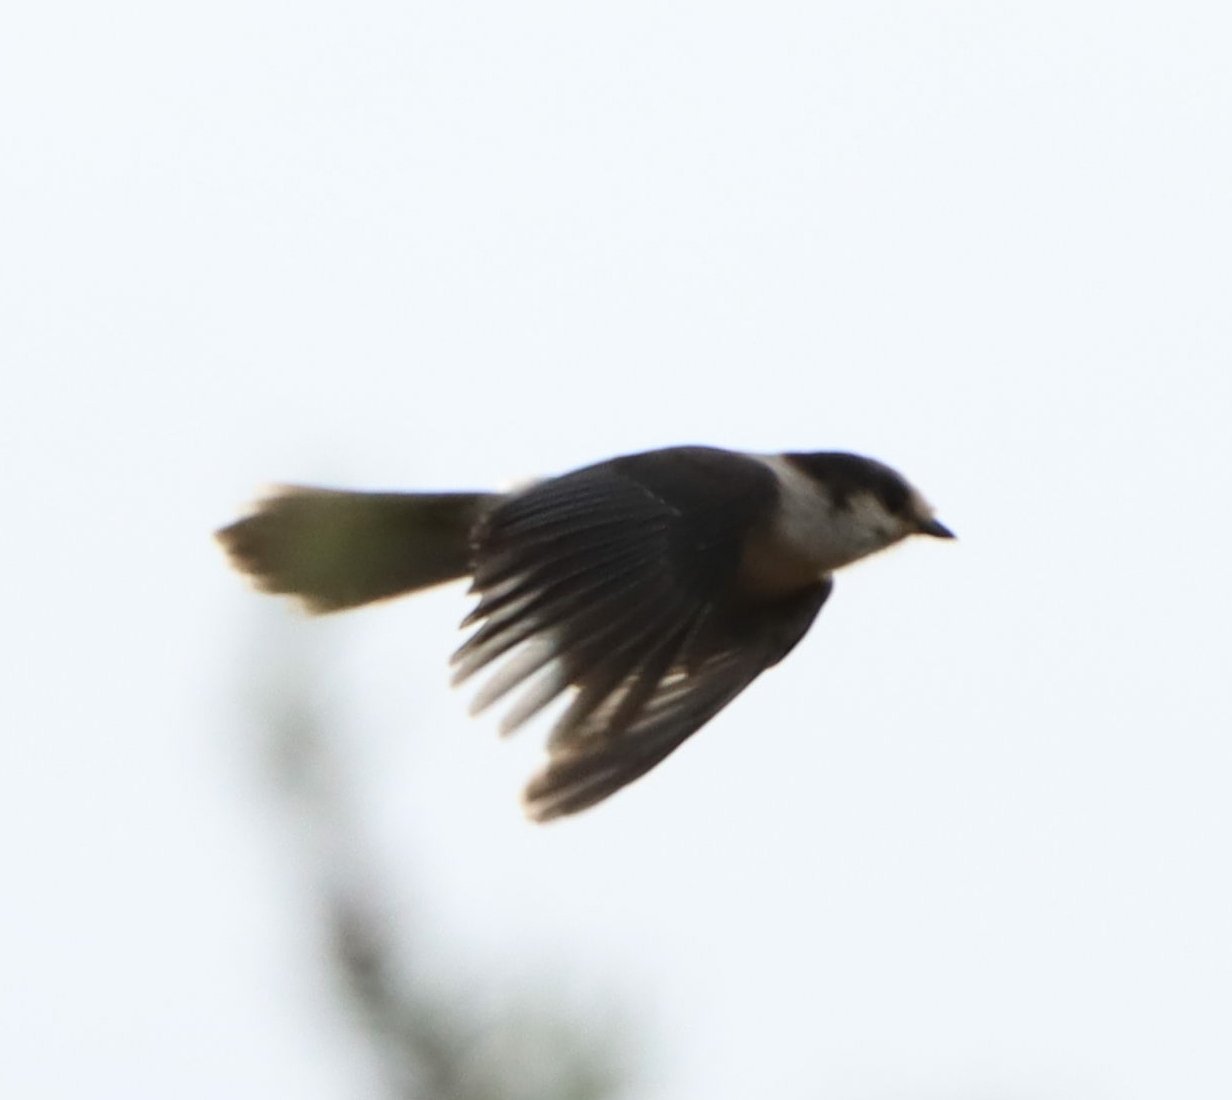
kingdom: Animalia
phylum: Chordata
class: Aves
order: Passeriformes
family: Corvidae
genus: Perisoreus
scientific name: Perisoreus canadensis
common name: Gray jay
